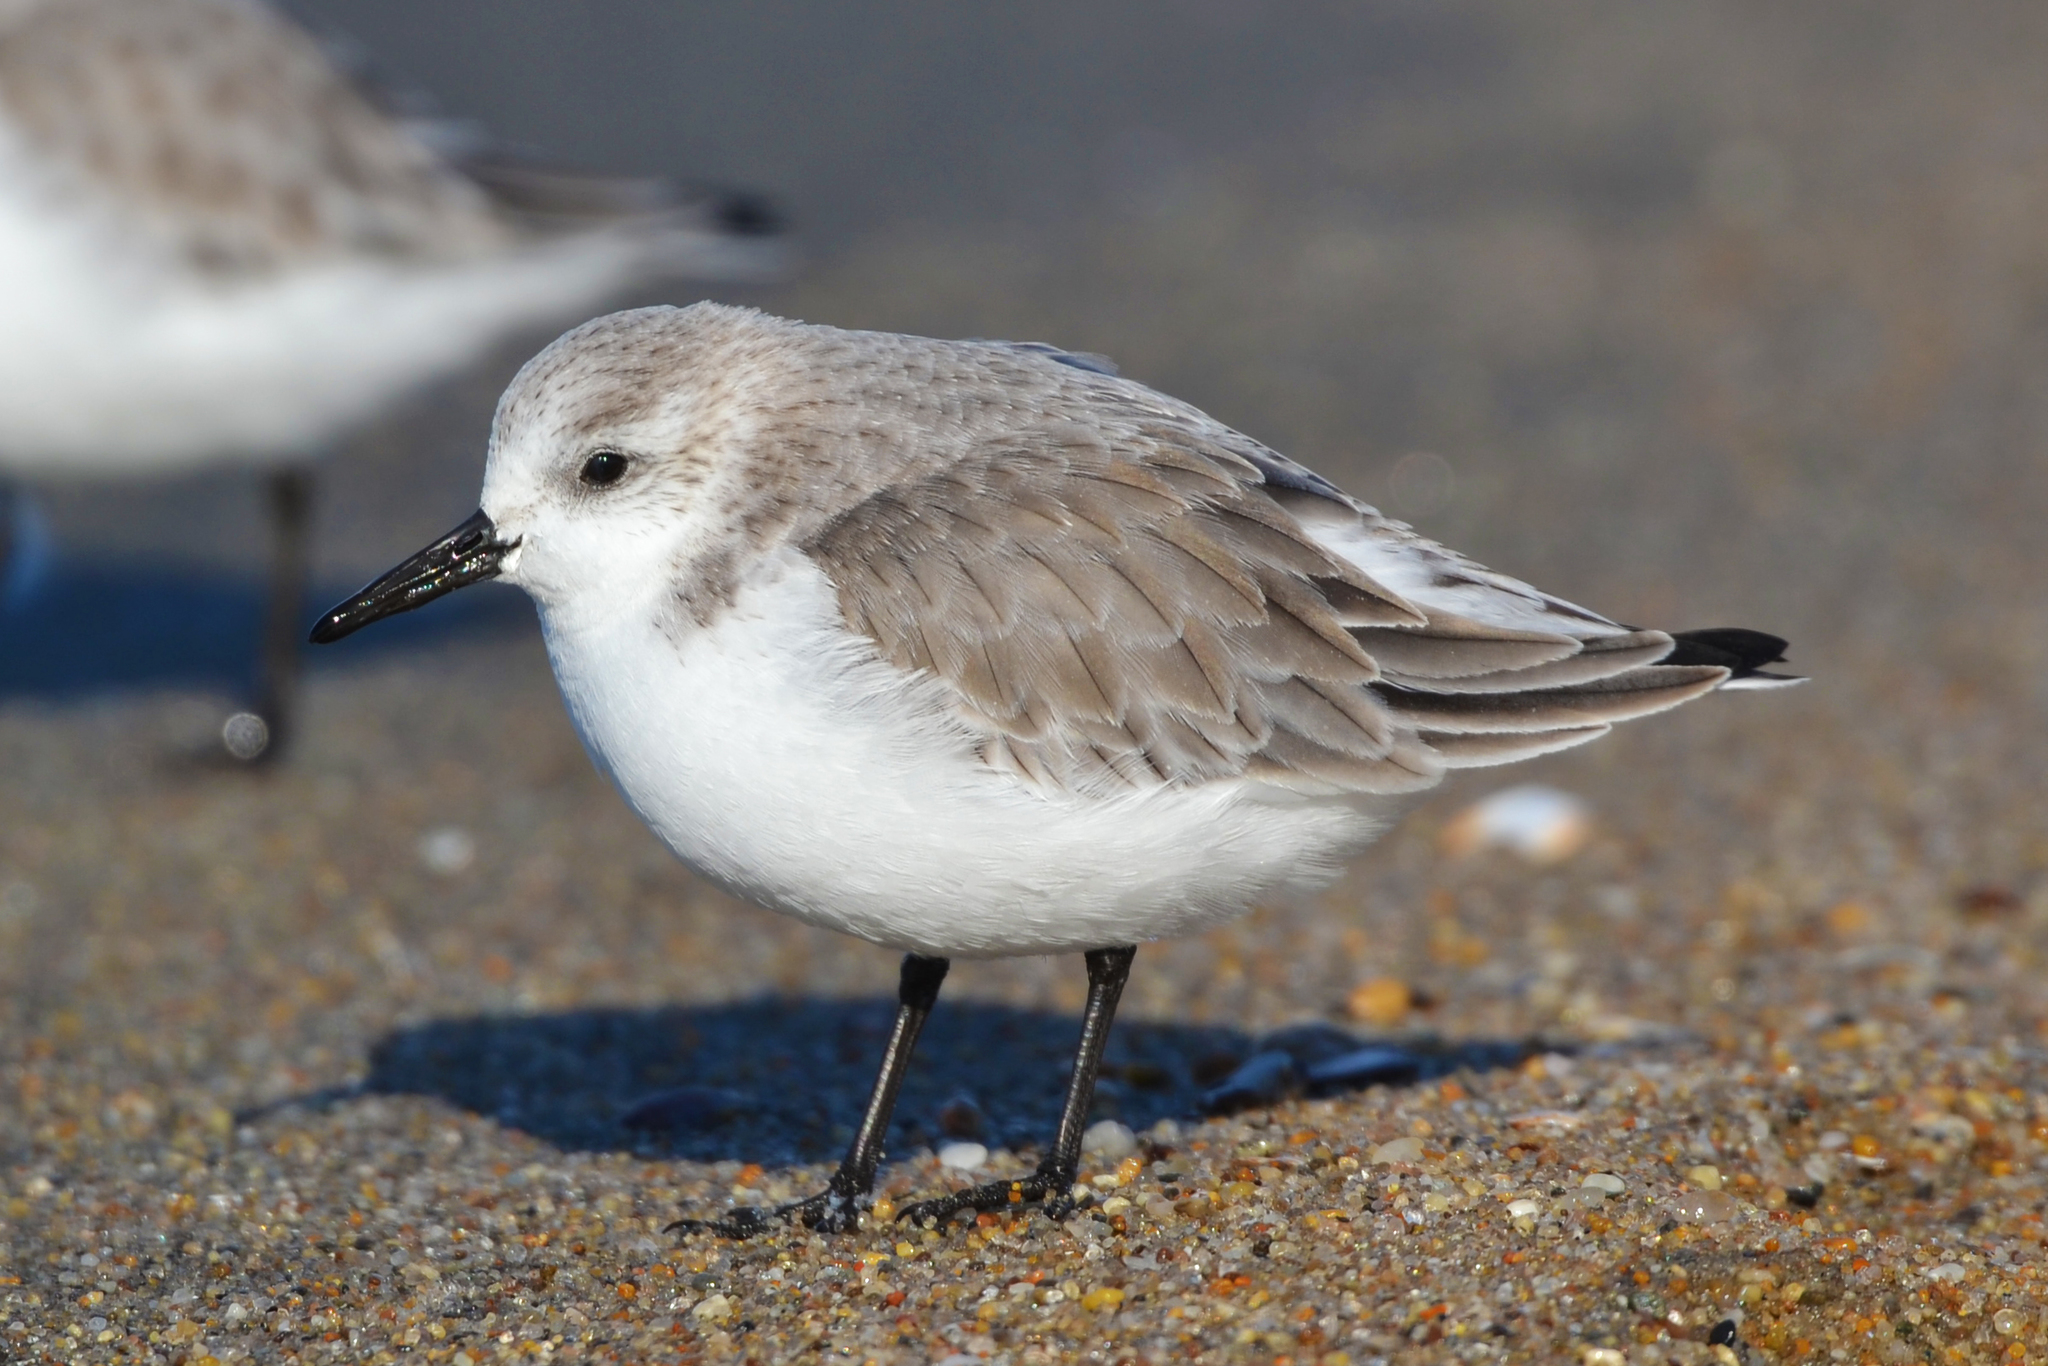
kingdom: Animalia
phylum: Chordata
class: Aves
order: Charadriiformes
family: Scolopacidae
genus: Calidris
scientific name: Calidris alba
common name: Sanderling
